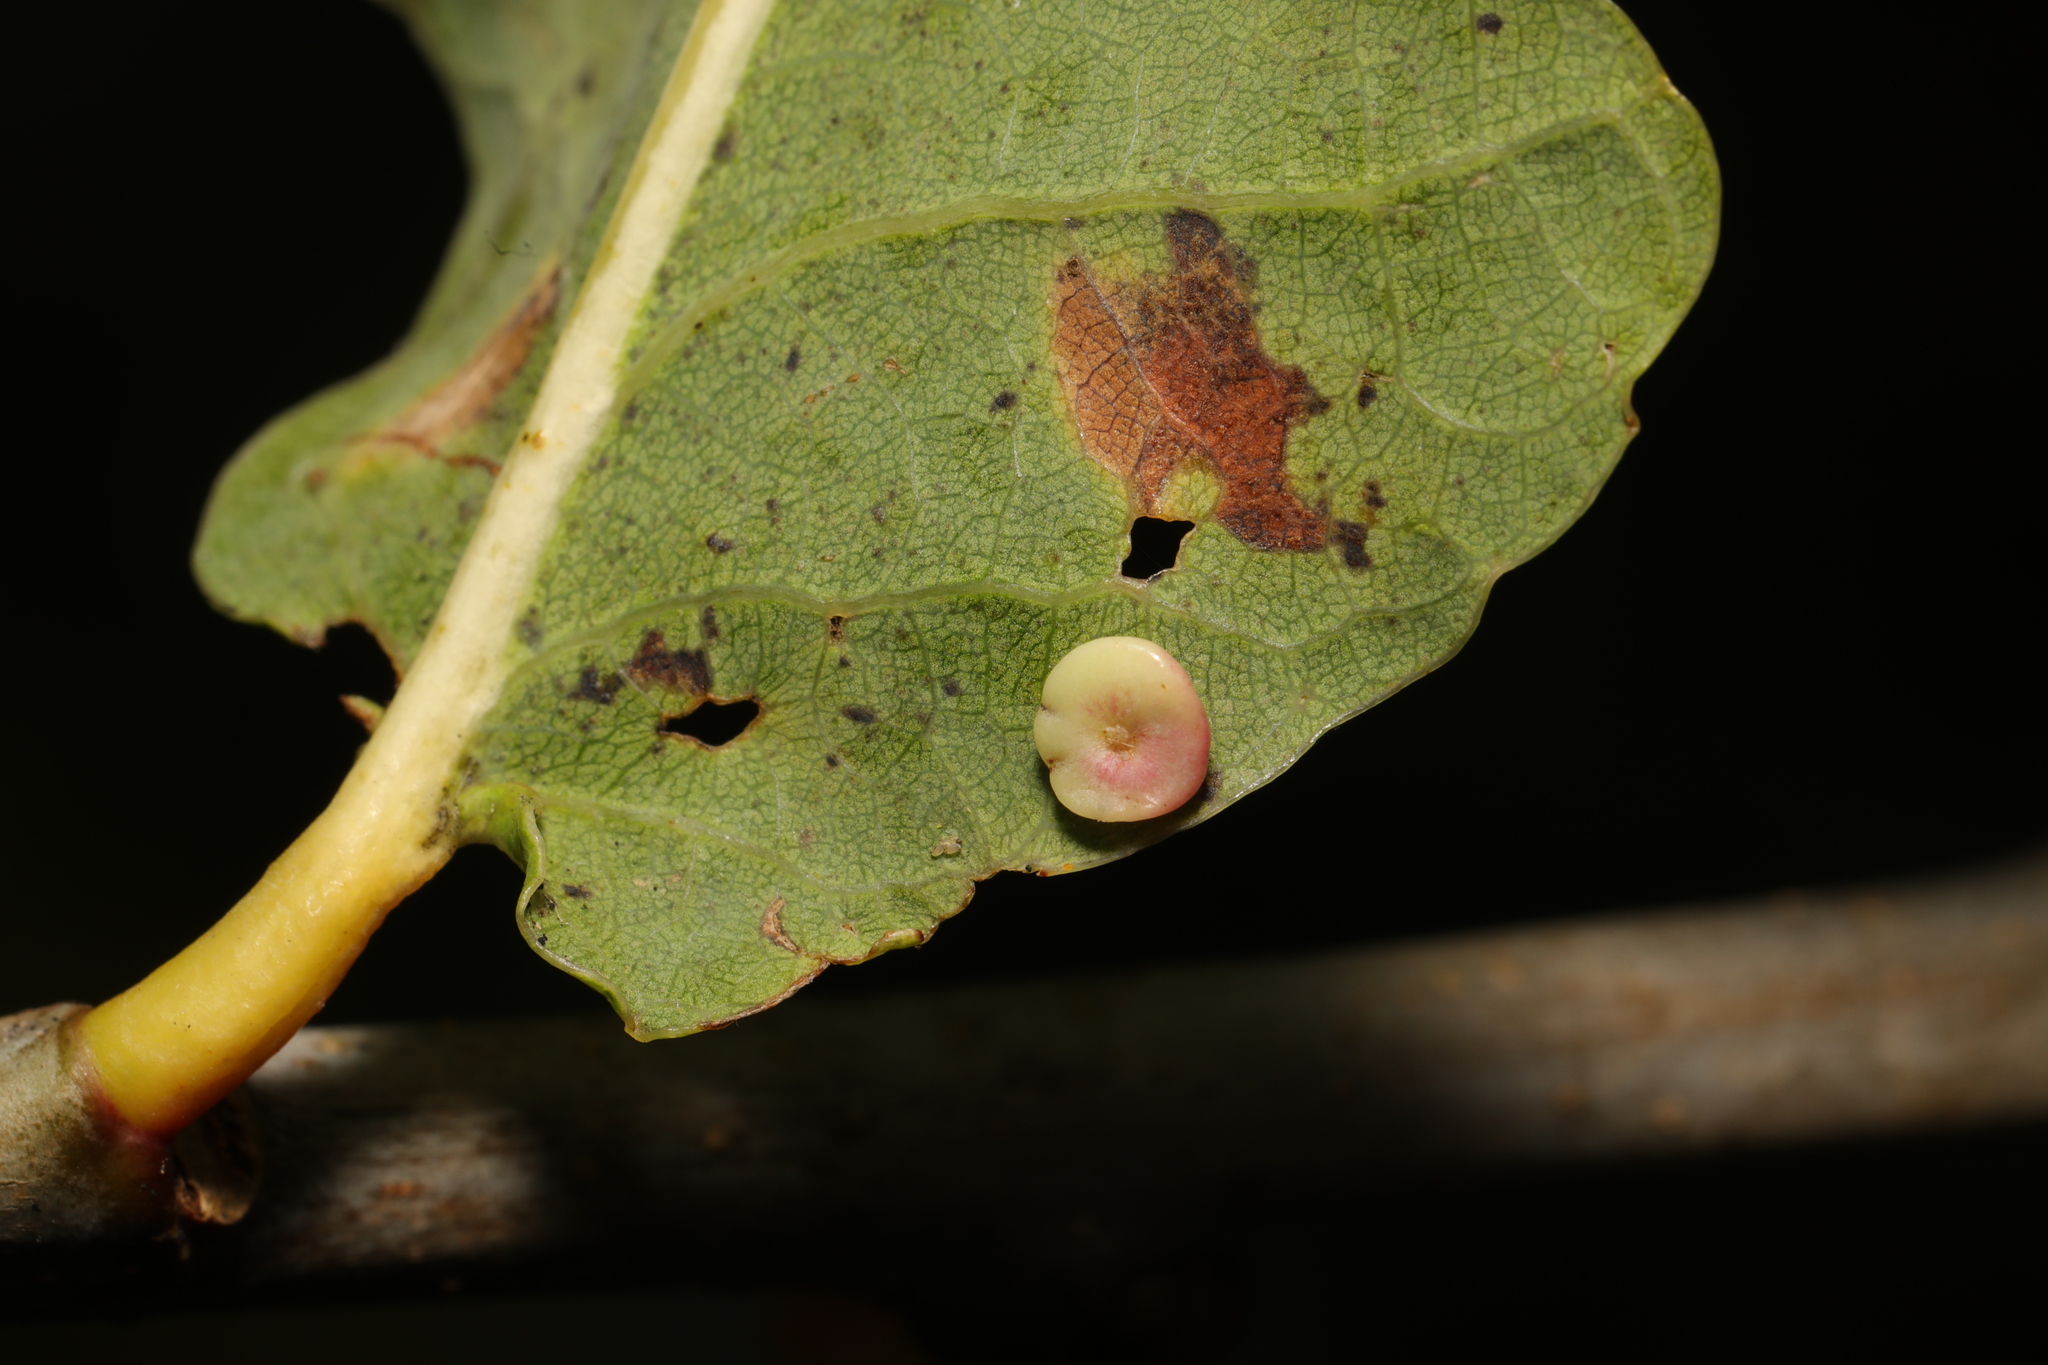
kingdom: Animalia
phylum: Arthropoda
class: Insecta
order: Hymenoptera
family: Cynipidae
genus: Neuroterus
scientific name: Neuroterus albipes
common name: Smooth spangle gall
